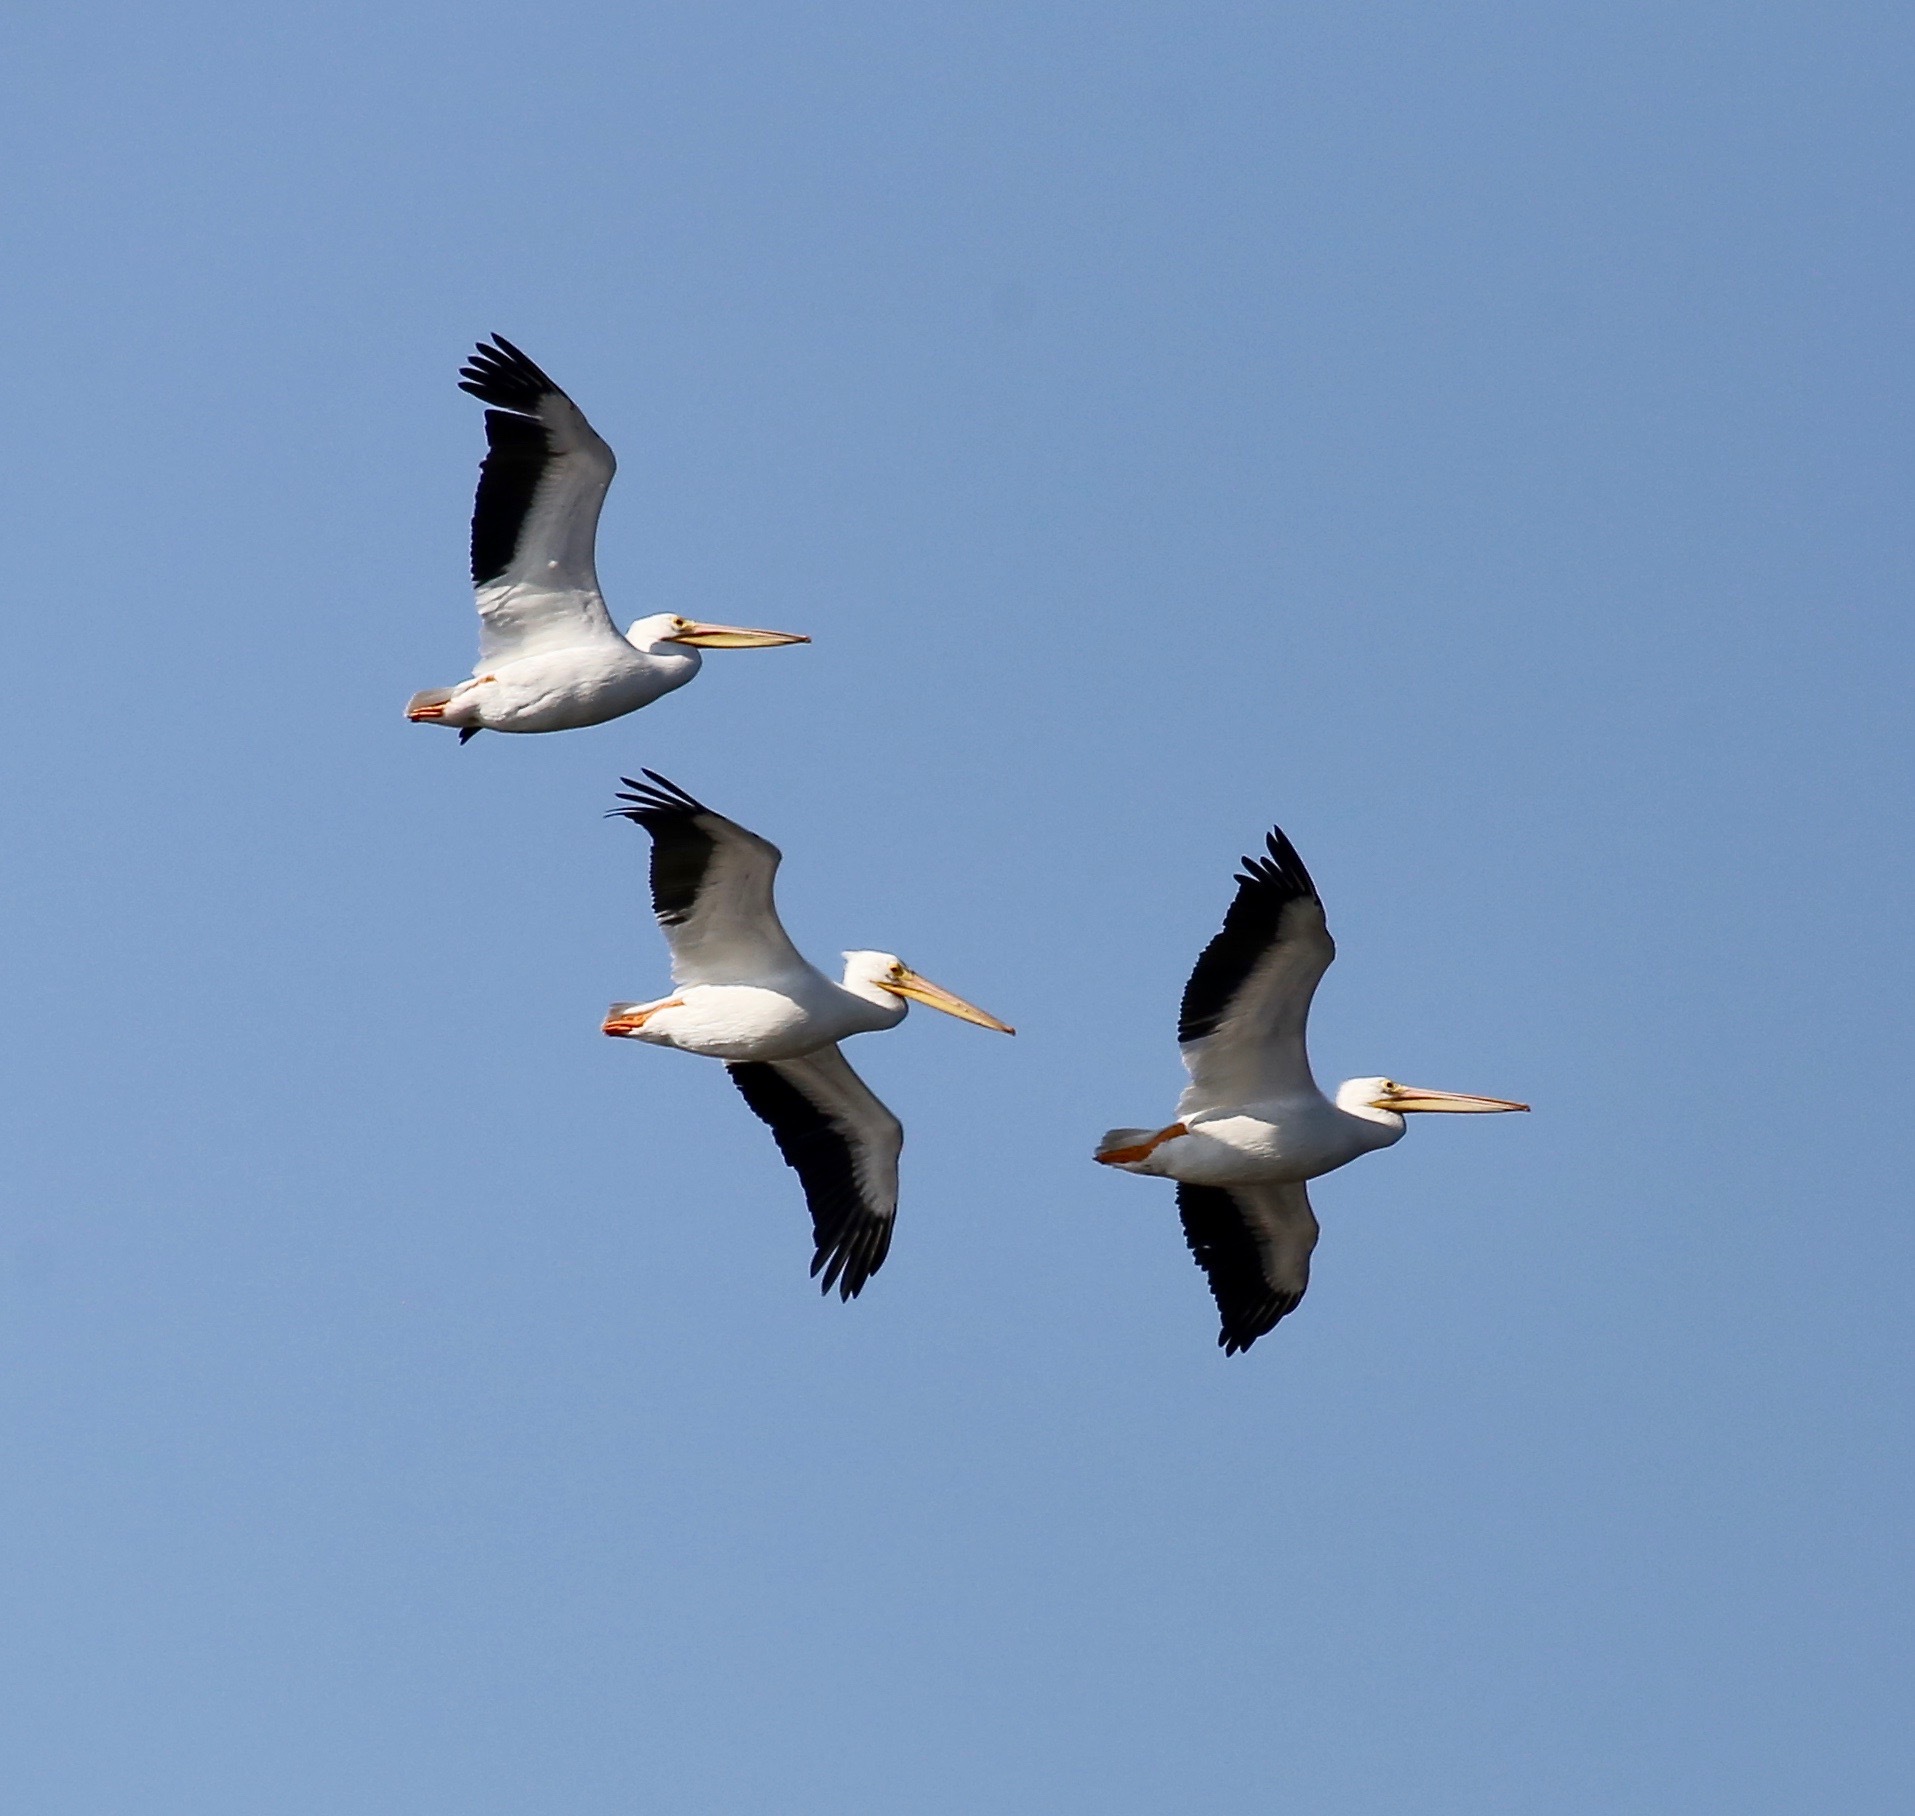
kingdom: Animalia
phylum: Chordata
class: Aves
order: Pelecaniformes
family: Pelecanidae
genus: Pelecanus
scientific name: Pelecanus erythrorhynchos
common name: American white pelican
